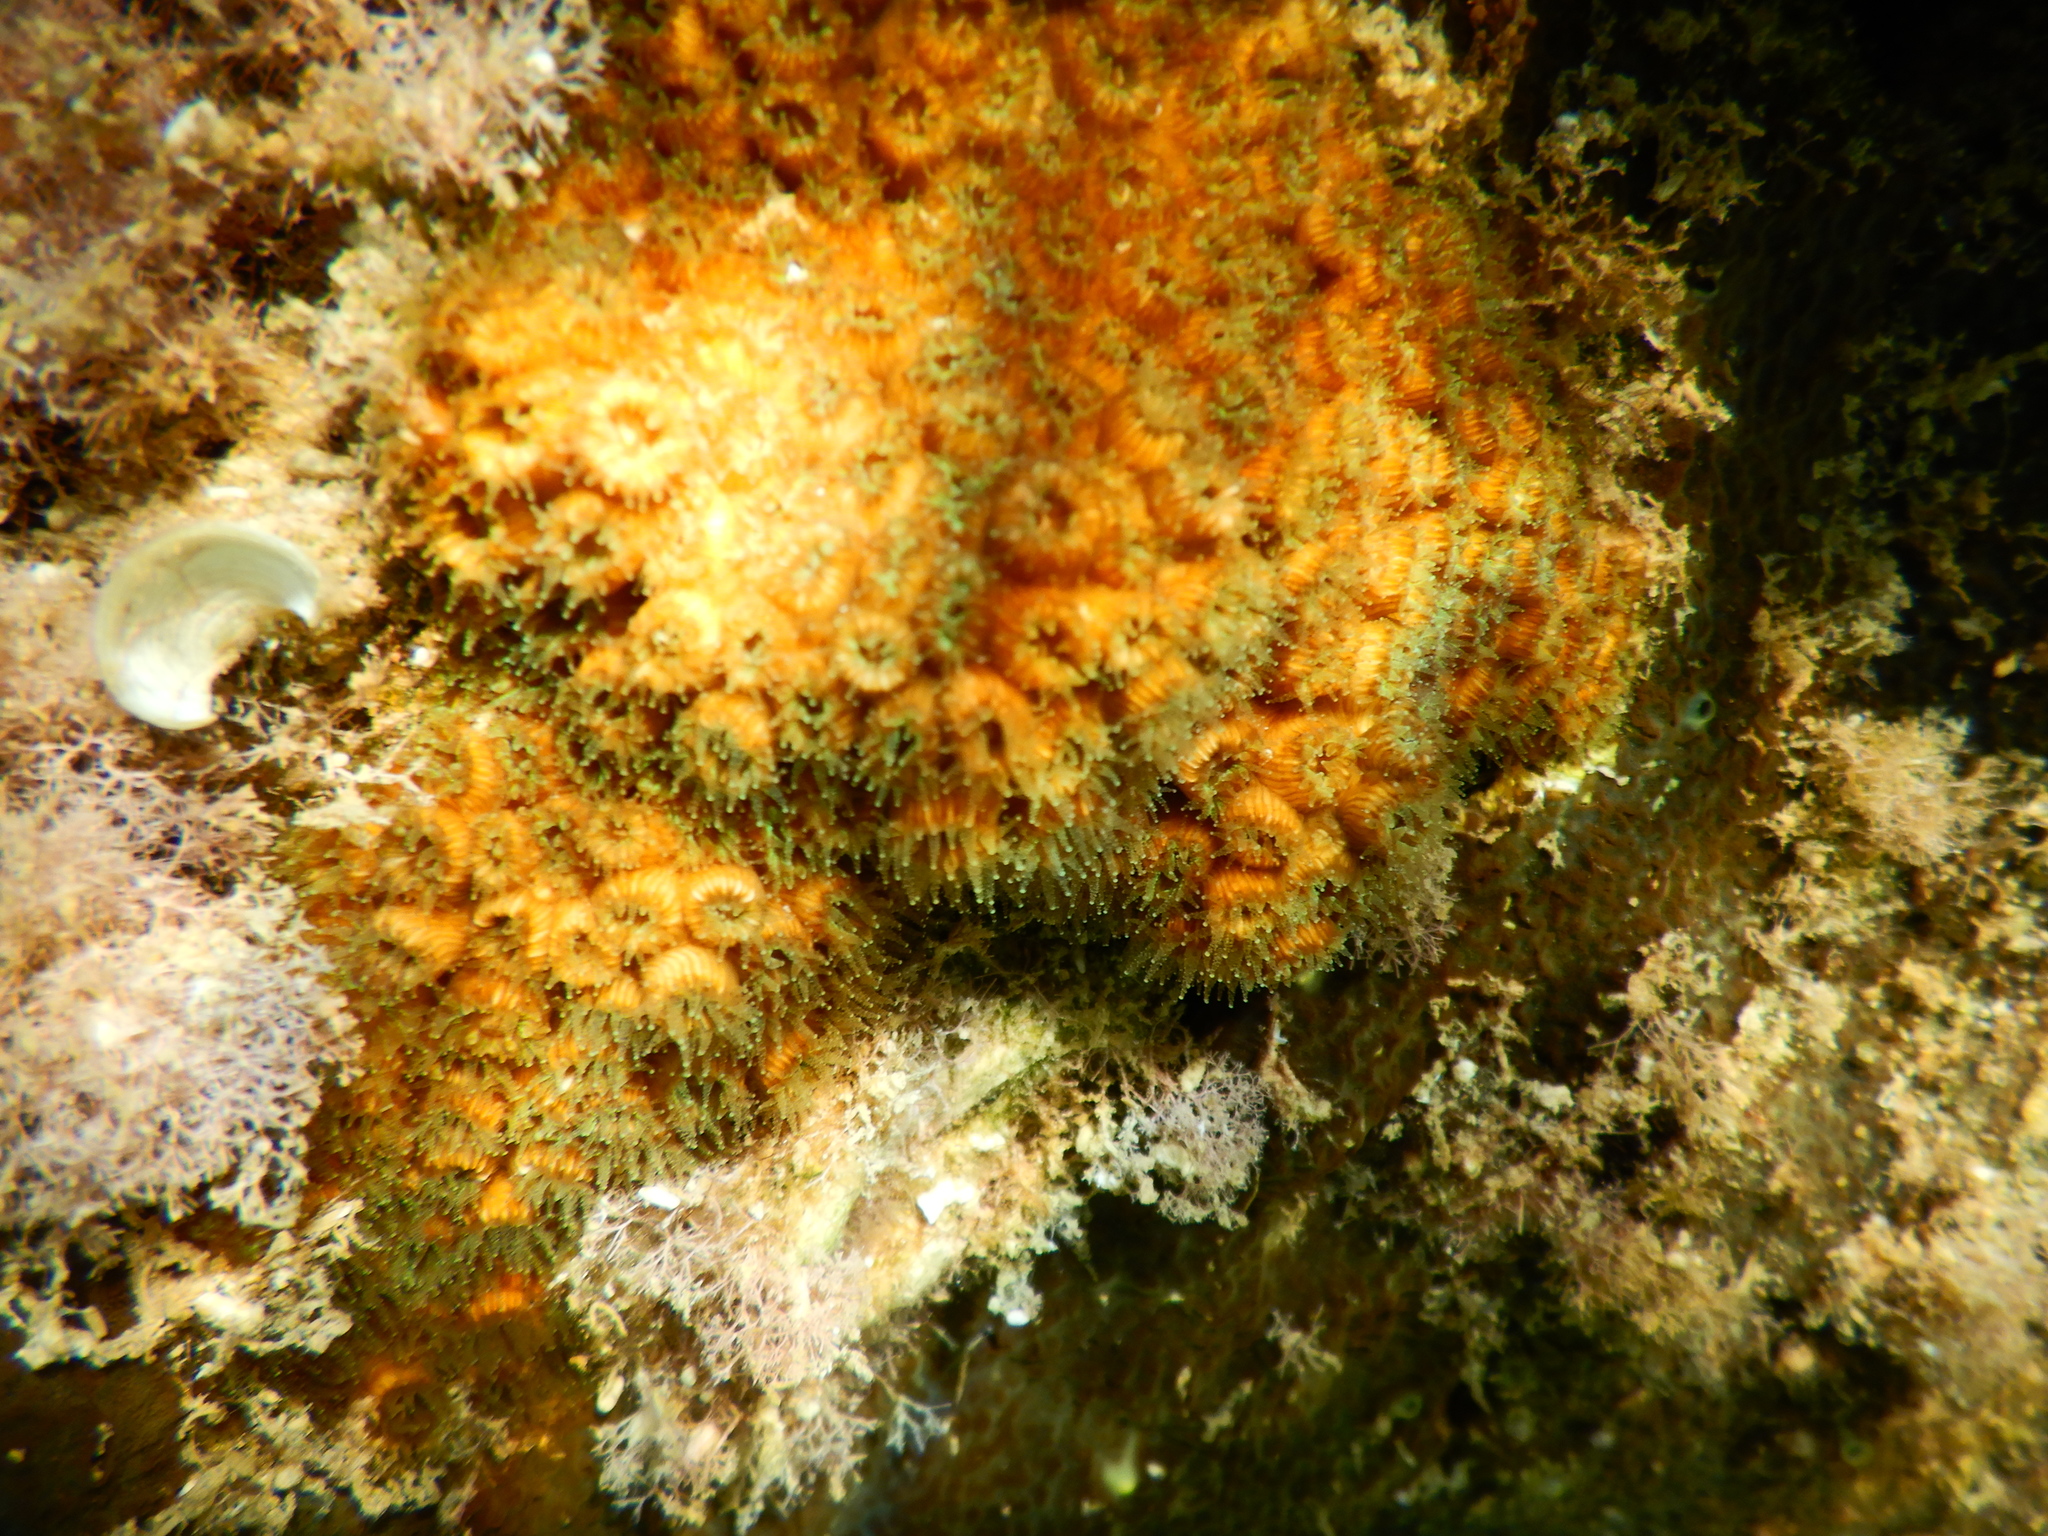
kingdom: Animalia
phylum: Cnidaria
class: Anthozoa
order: Scleractinia
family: Cladocoridae
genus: Cladocora
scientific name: Cladocora caespitosa
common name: Cladocora
